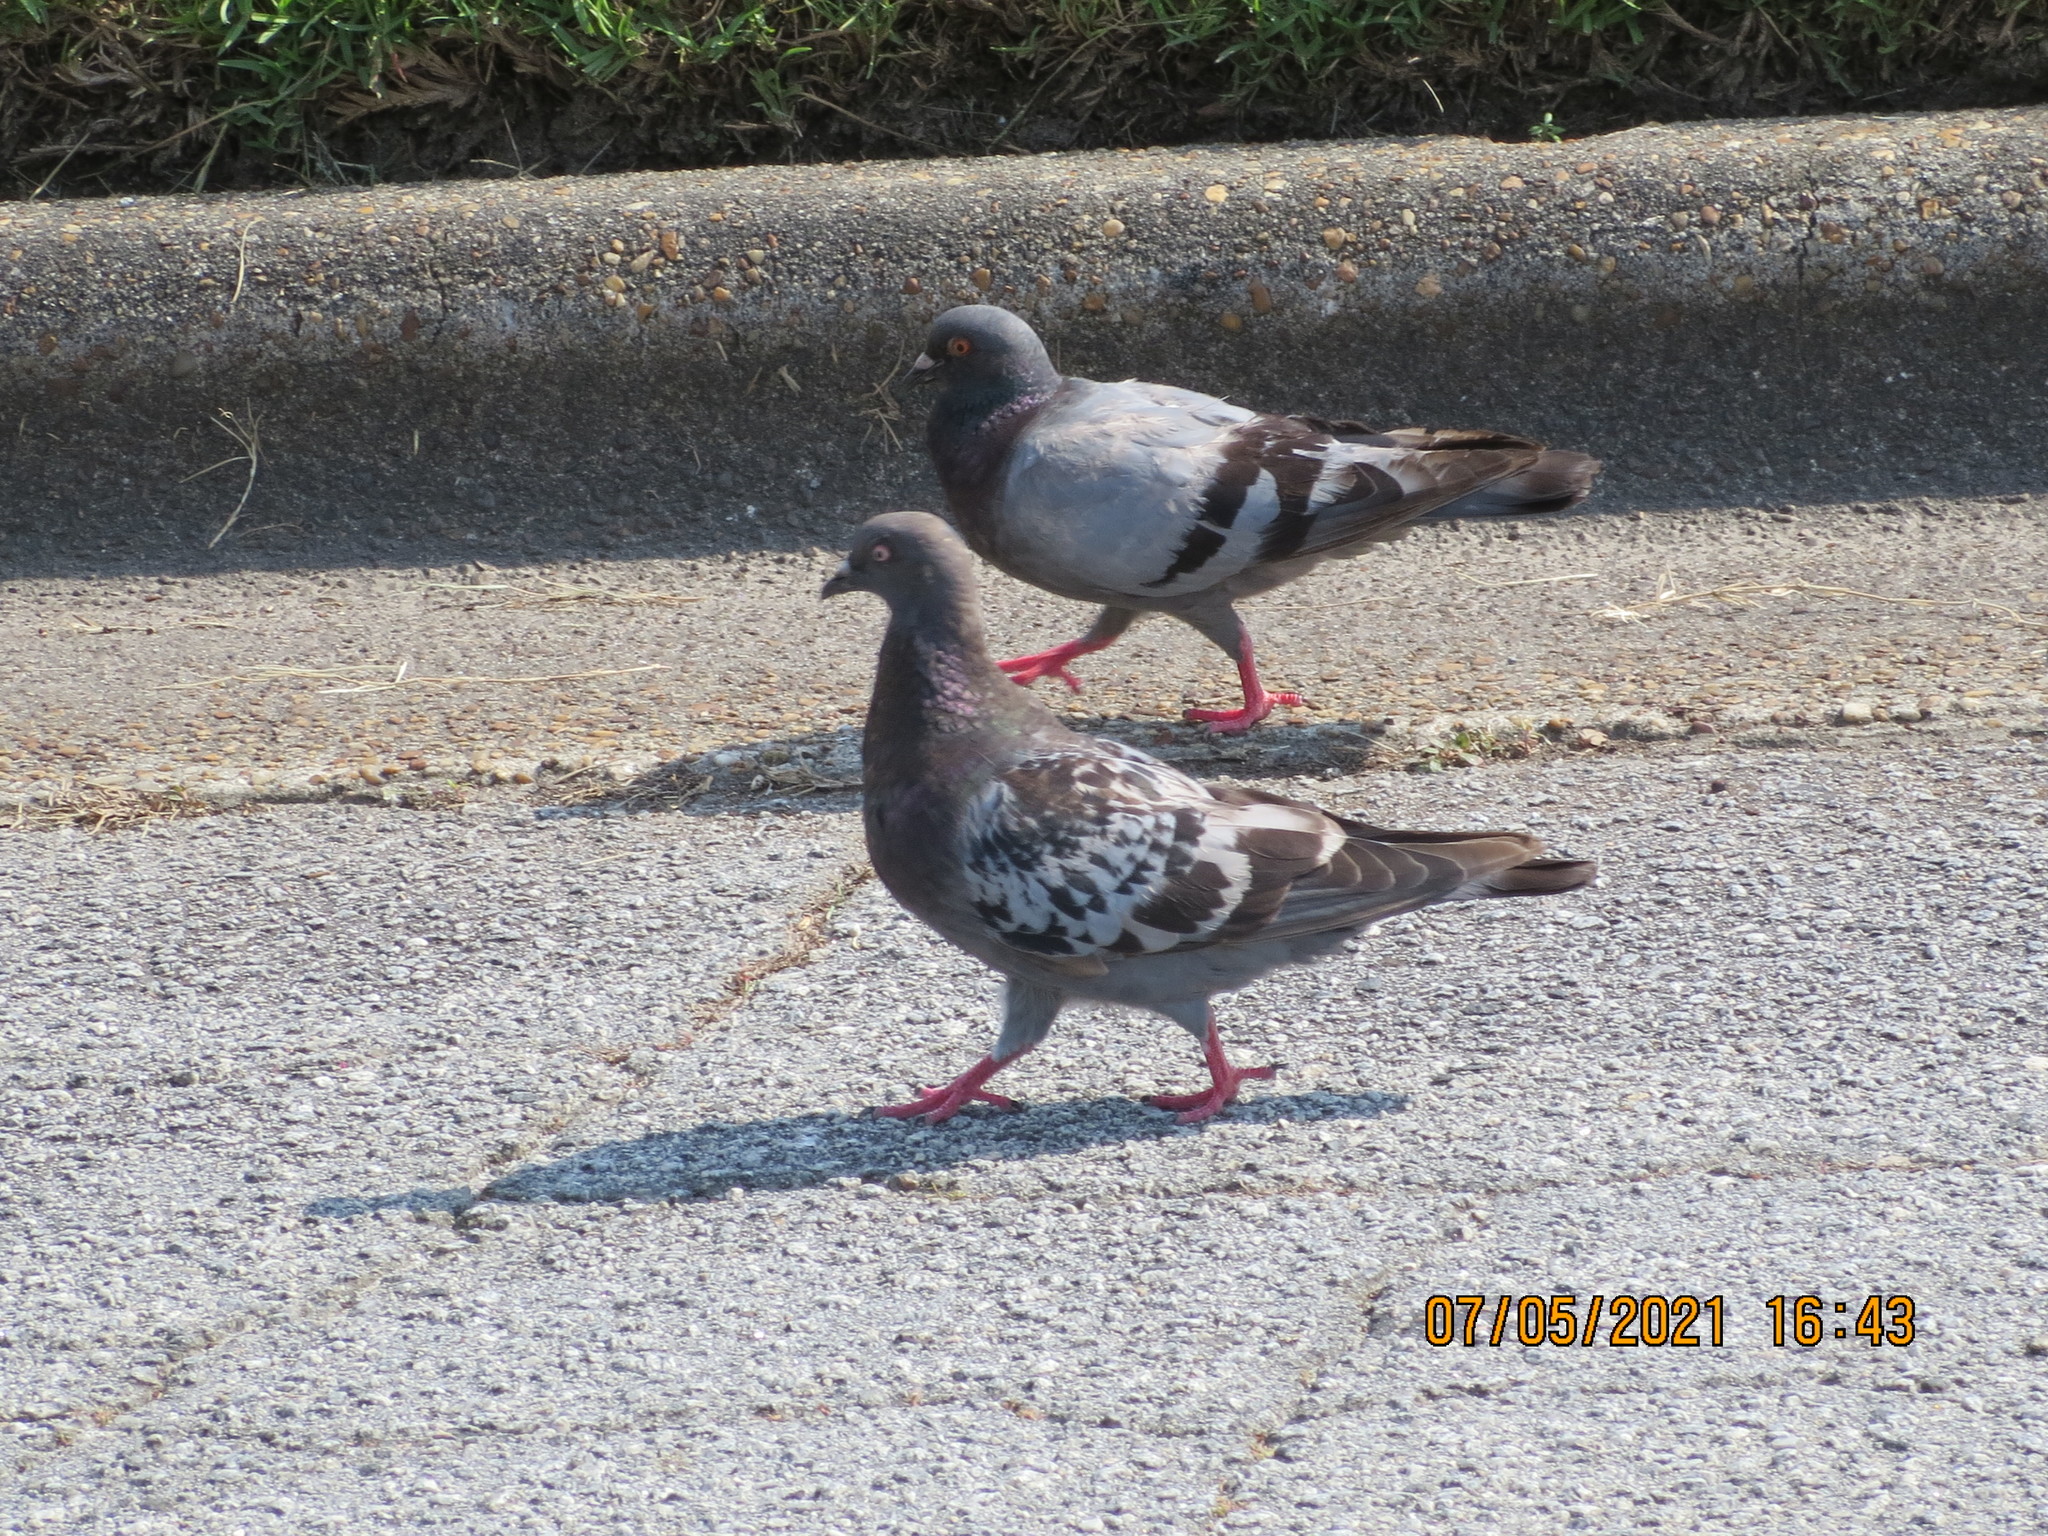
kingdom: Animalia
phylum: Chordata
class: Aves
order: Columbiformes
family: Columbidae
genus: Columba
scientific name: Columba livia
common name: Rock pigeon
